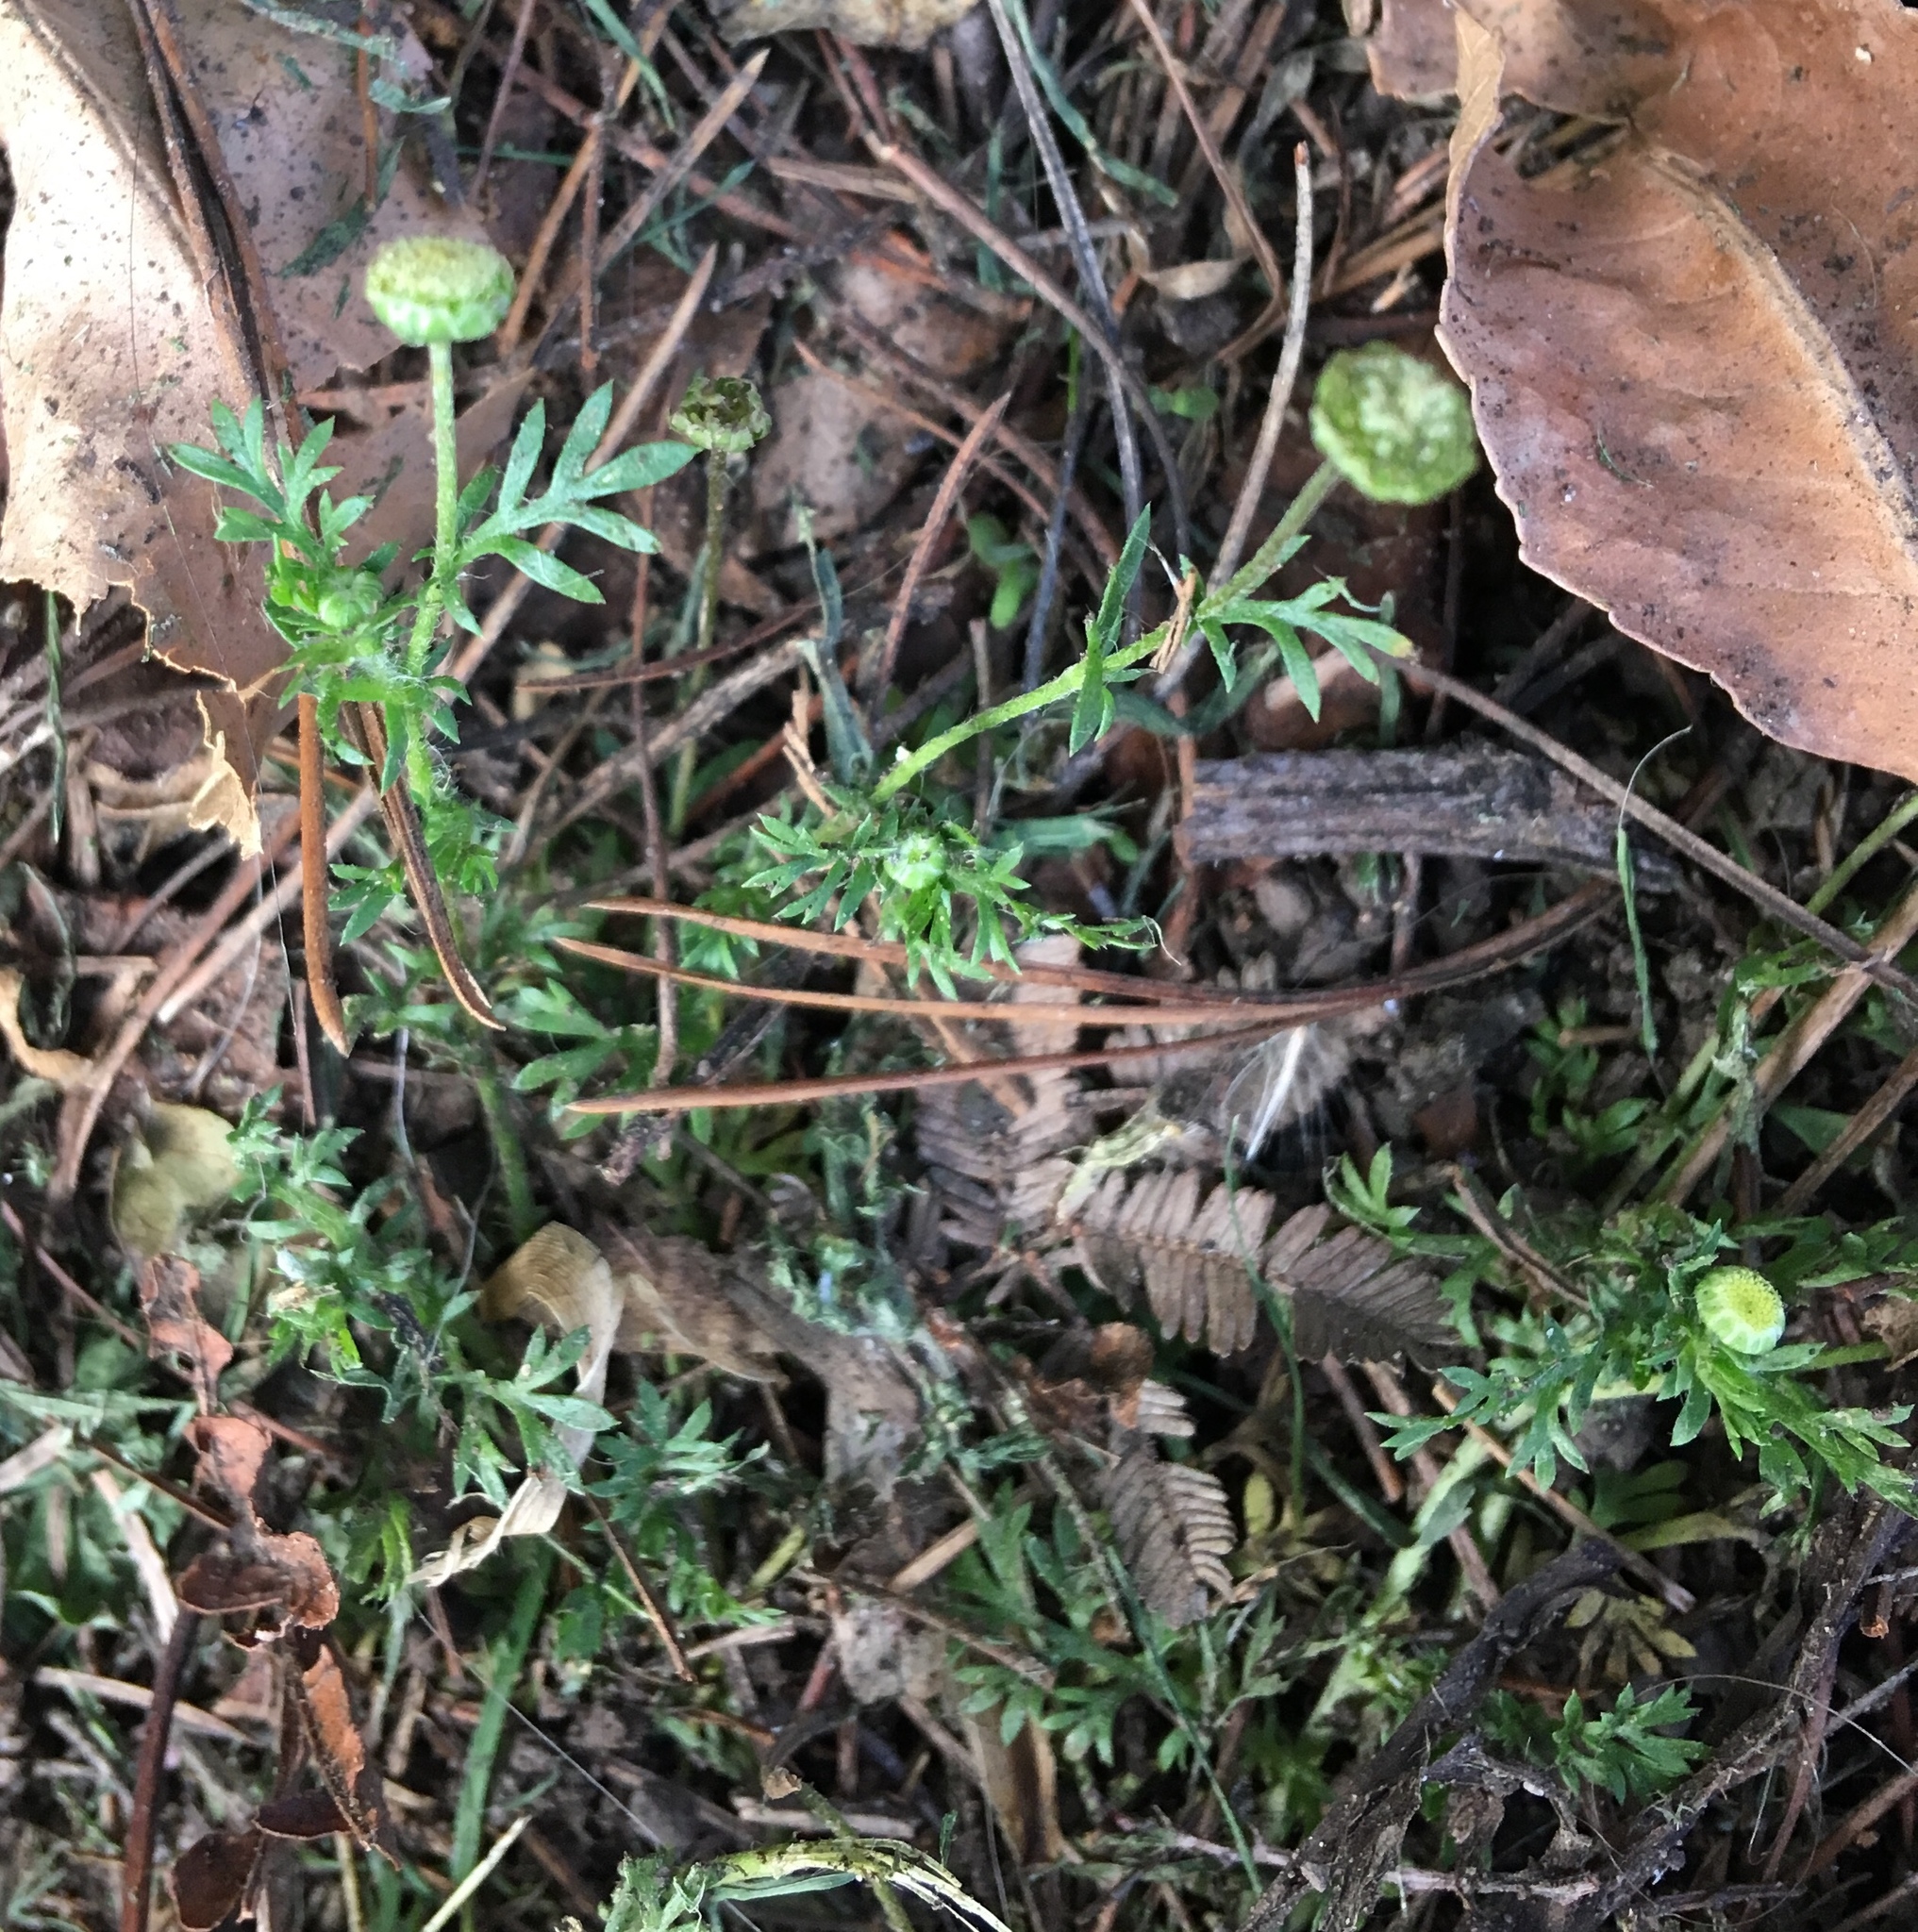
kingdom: Plantae
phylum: Tracheophyta
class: Magnoliopsida
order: Asterales
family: Asteraceae
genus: Cotula
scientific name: Cotula australis
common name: Australian waterbuttons
